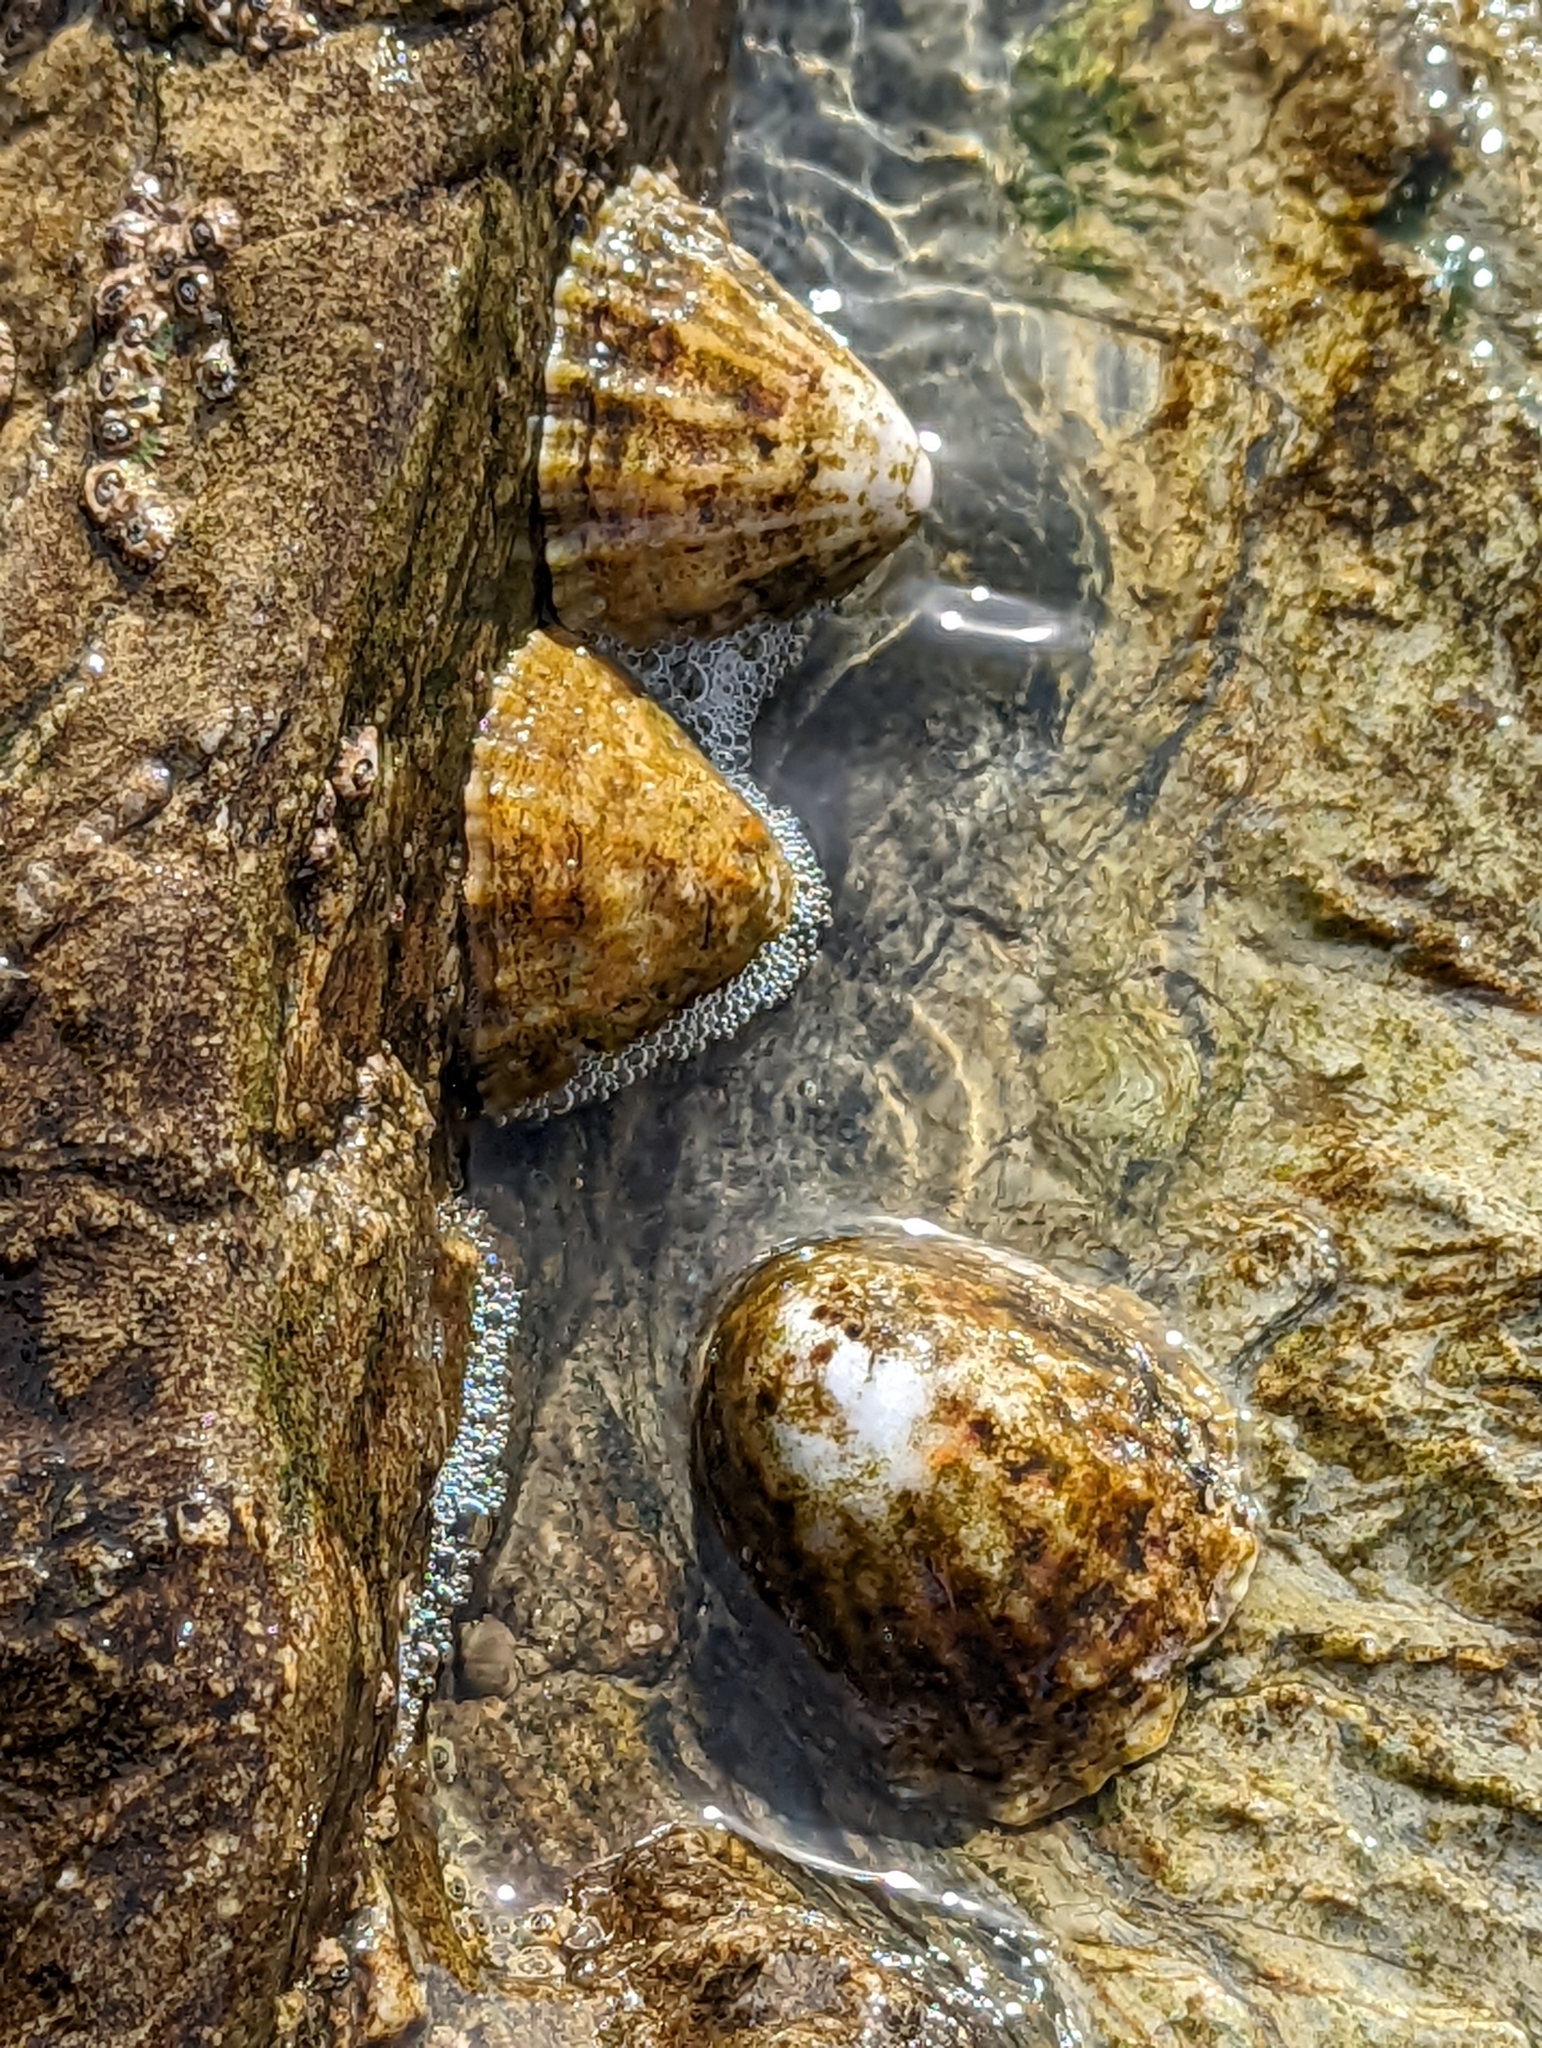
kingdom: Animalia
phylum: Mollusca
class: Gastropoda
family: Patellidae
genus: Patella
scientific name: Patella vulgata
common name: Common limpet
